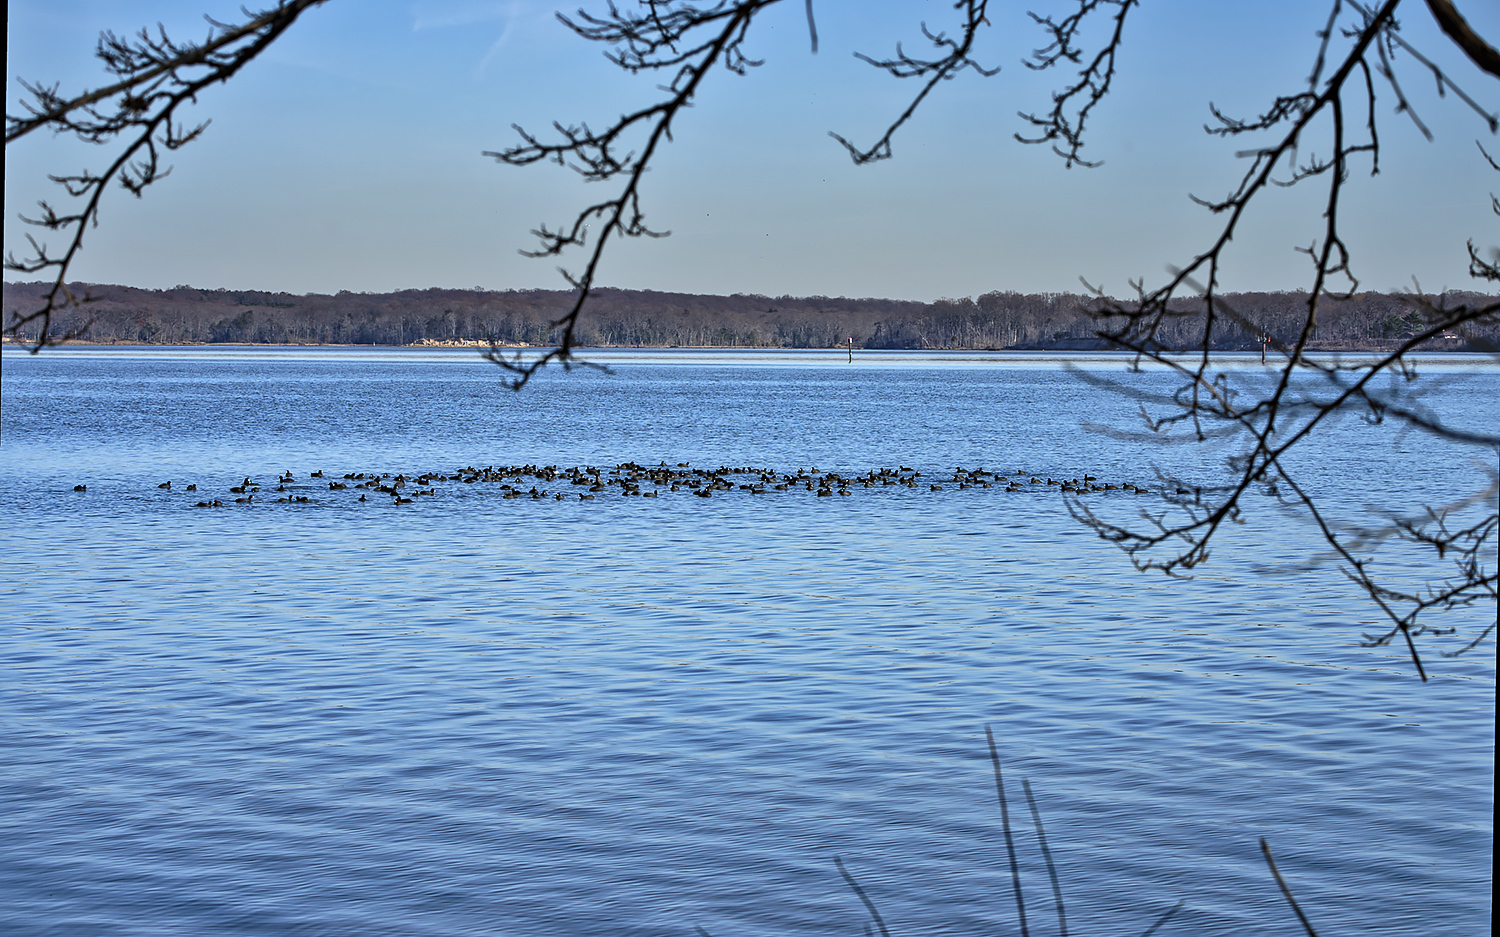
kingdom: Animalia
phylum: Chordata
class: Aves
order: Gruiformes
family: Rallidae
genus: Fulica
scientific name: Fulica americana
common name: American coot
